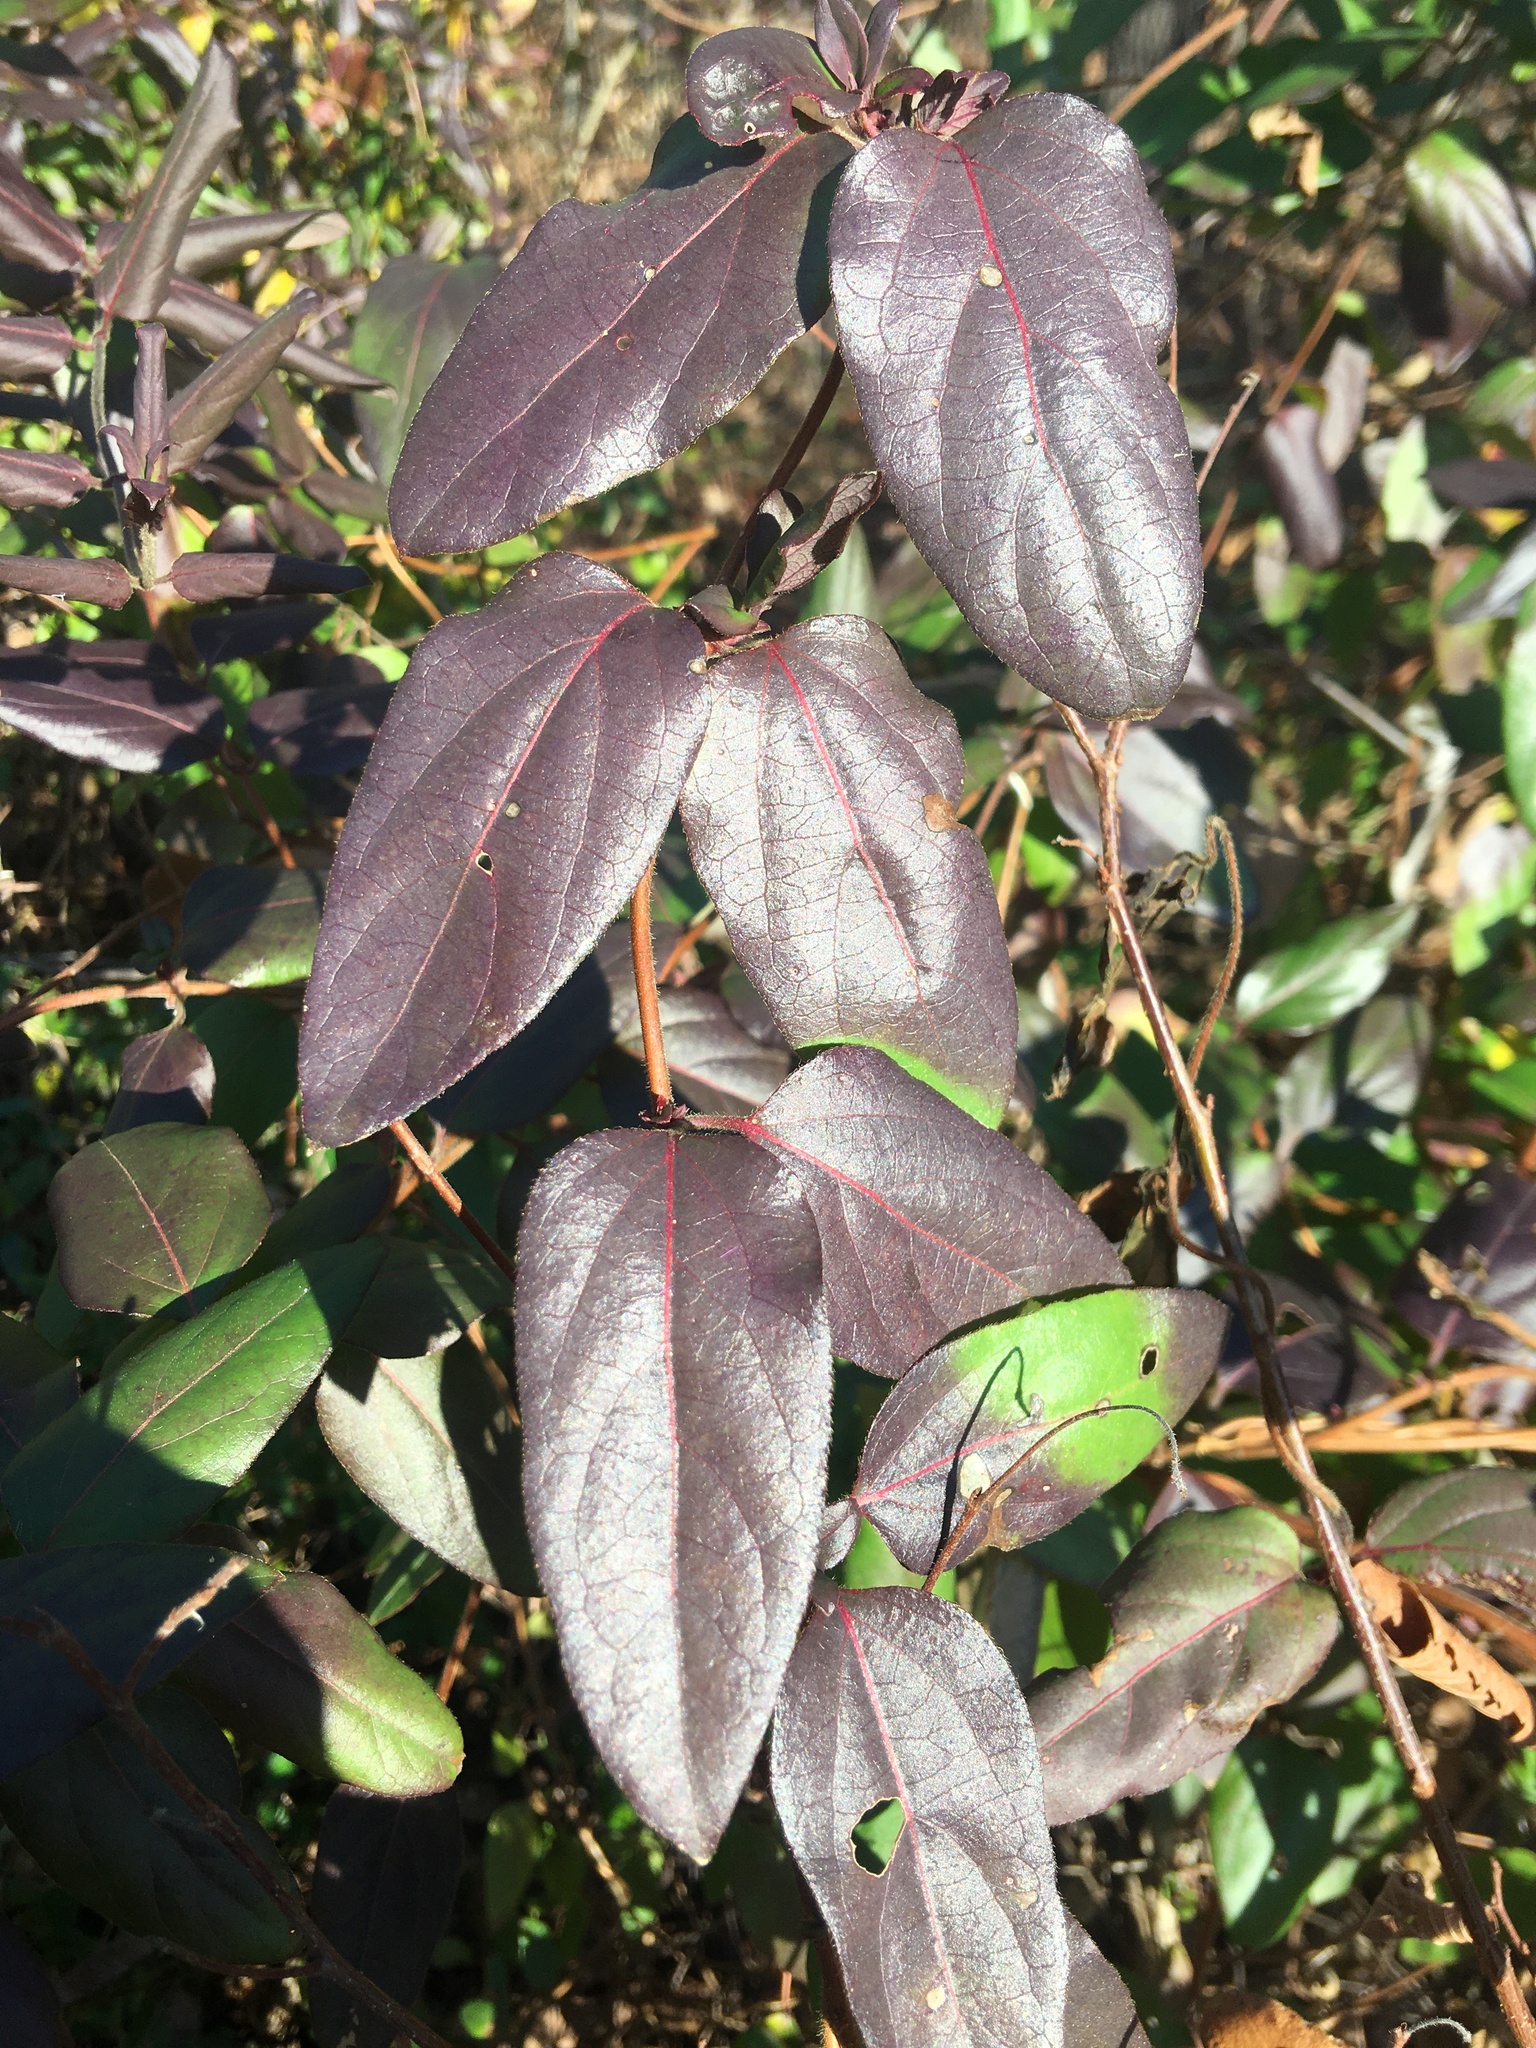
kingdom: Plantae
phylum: Tracheophyta
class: Magnoliopsida
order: Dipsacales
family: Caprifoliaceae
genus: Lonicera
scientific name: Lonicera japonica
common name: Japanese honeysuckle
